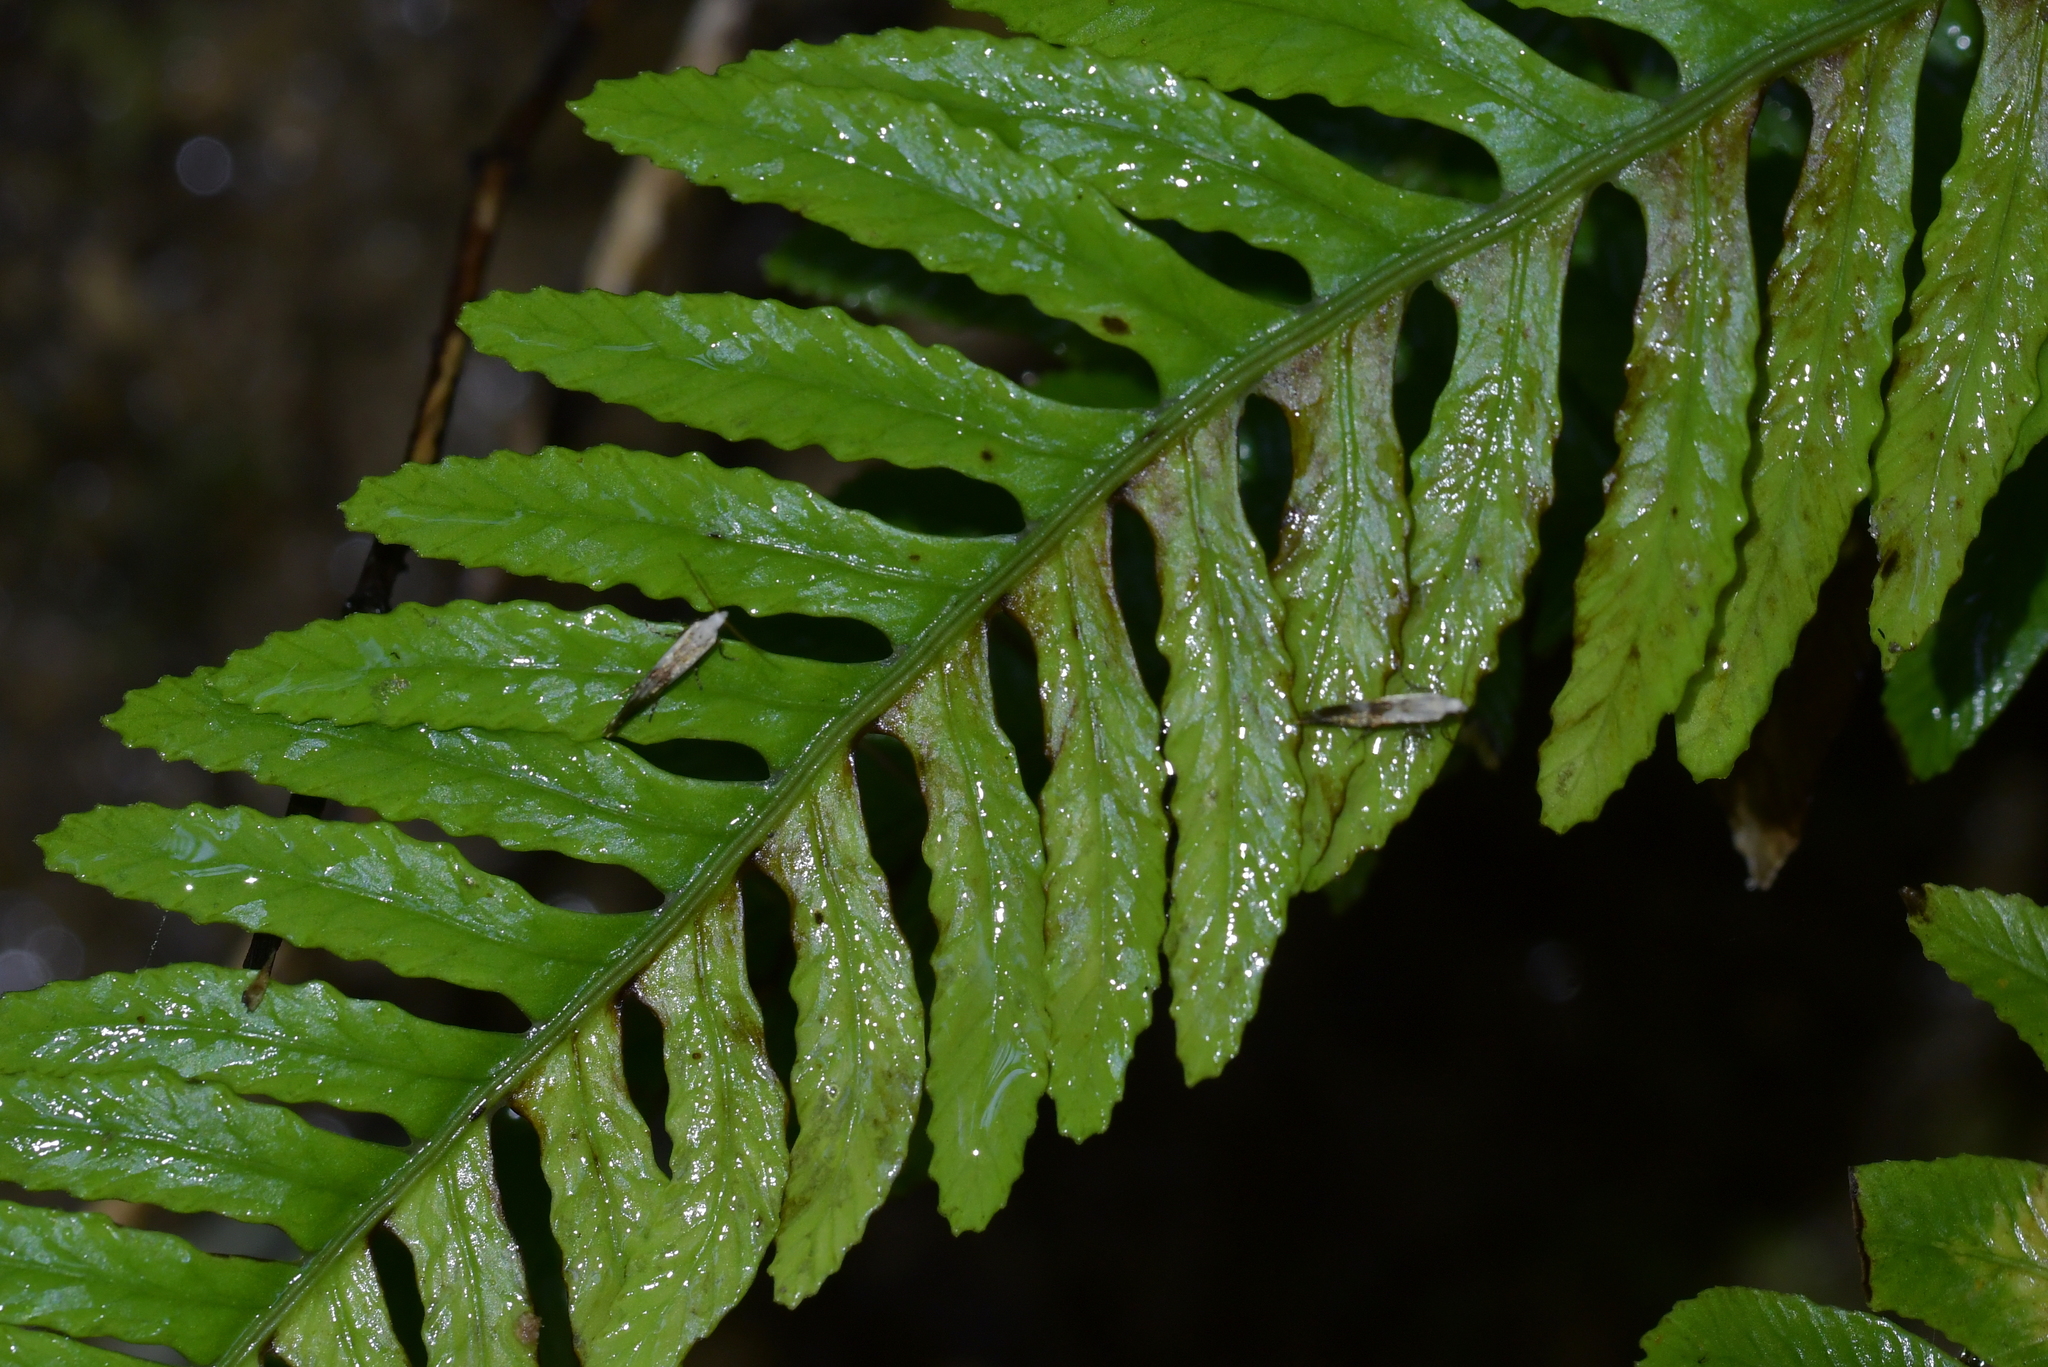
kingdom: Animalia
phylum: Arthropoda
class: Insecta
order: Lepidoptera
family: Mnesarchaeidae
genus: Mnesarchella
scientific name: Mnesarchella fusilella
